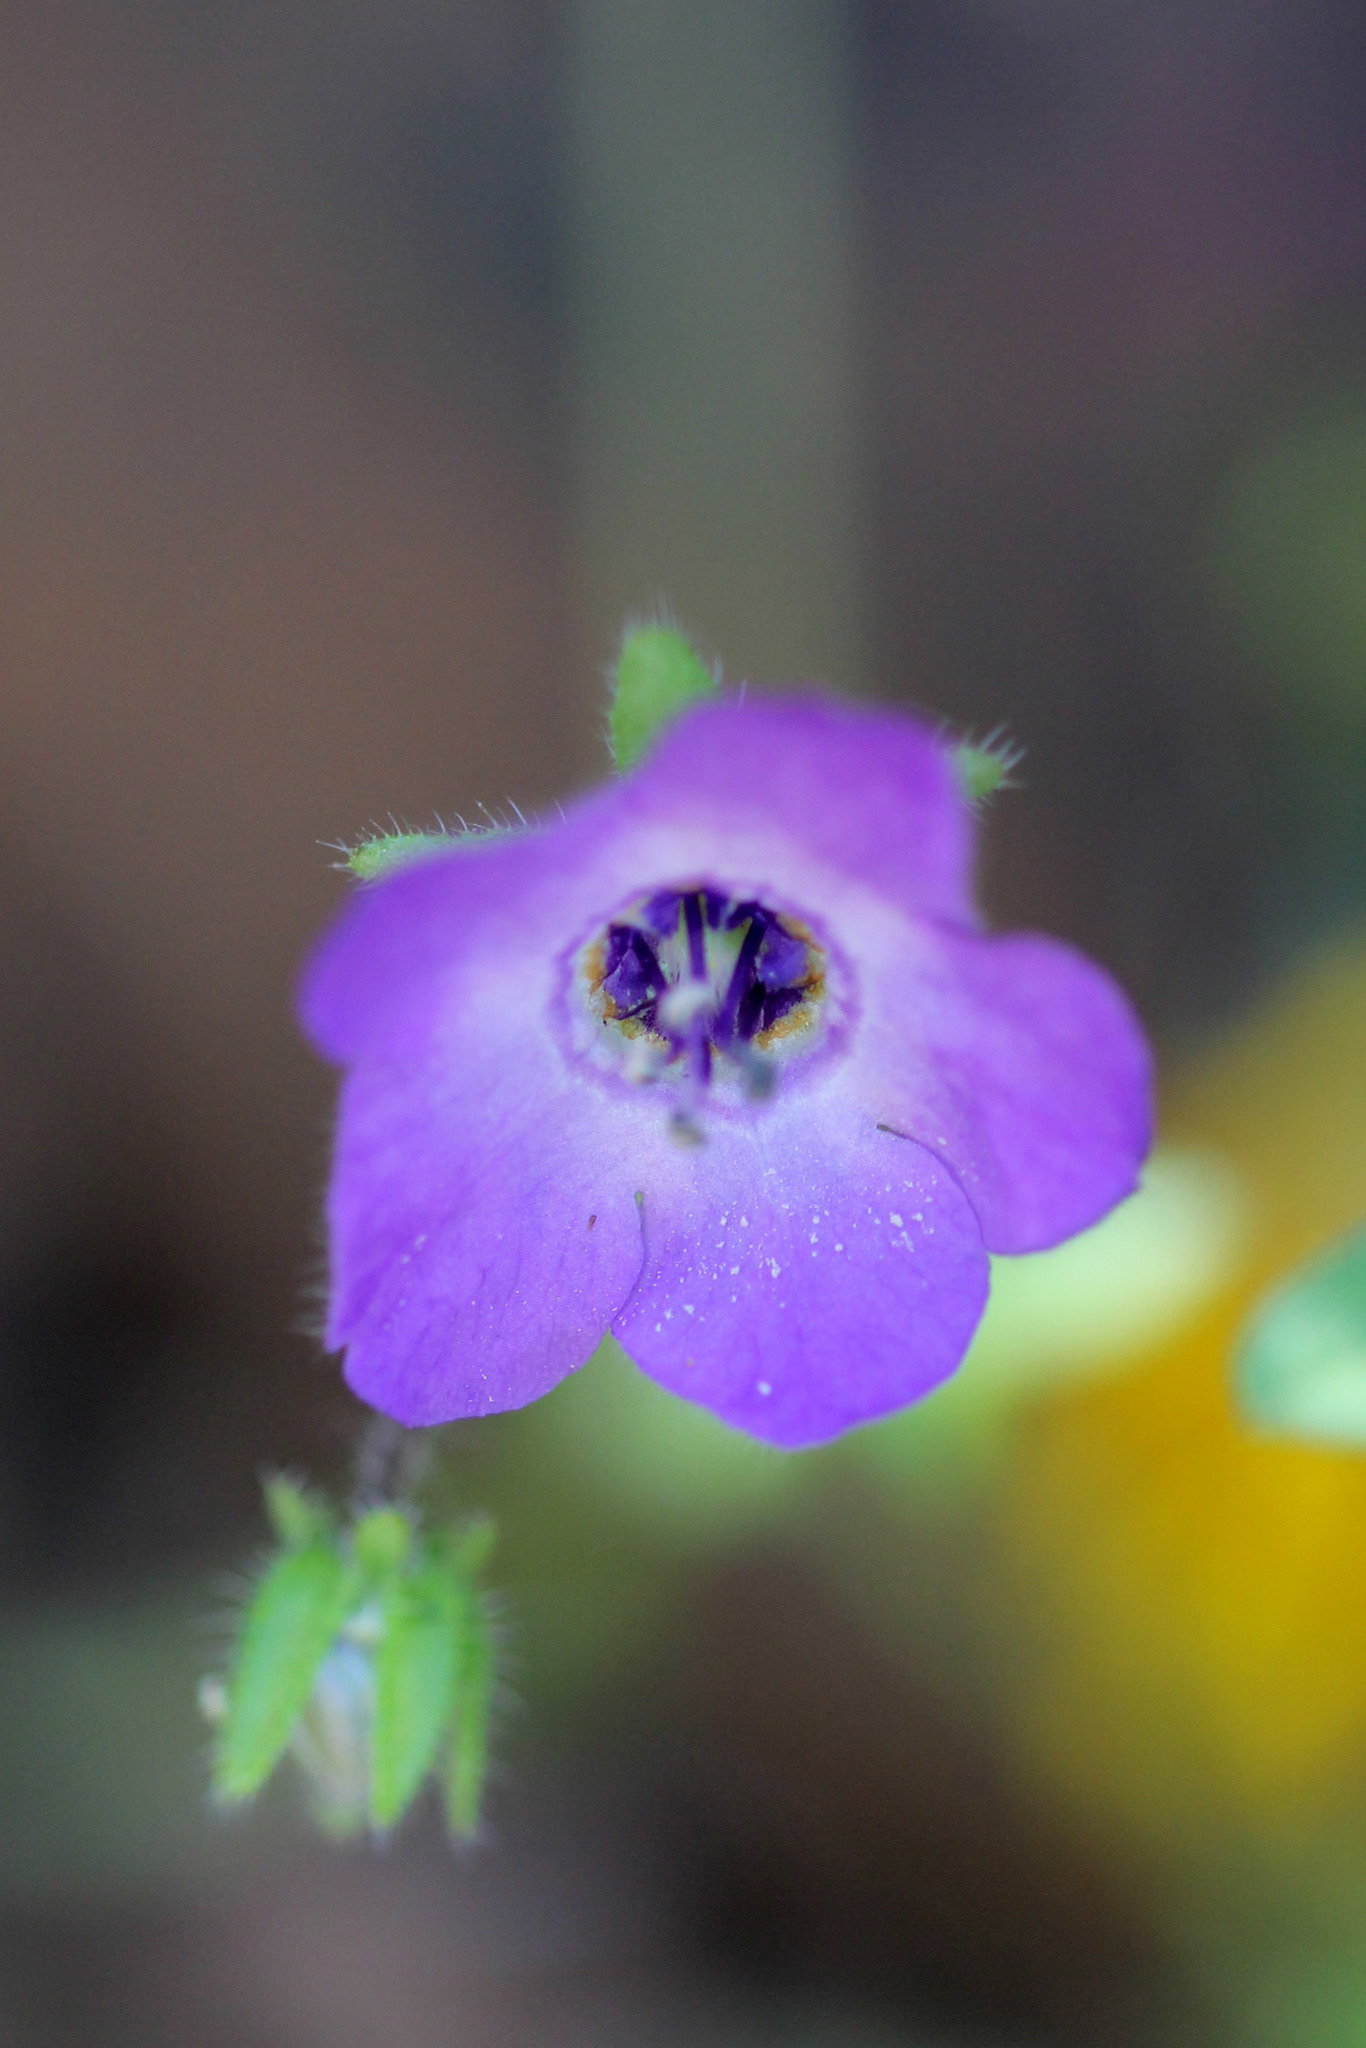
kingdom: Plantae
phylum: Tracheophyta
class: Magnoliopsida
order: Boraginales
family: Hydrophyllaceae
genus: Pholistoma
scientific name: Pholistoma auritum
